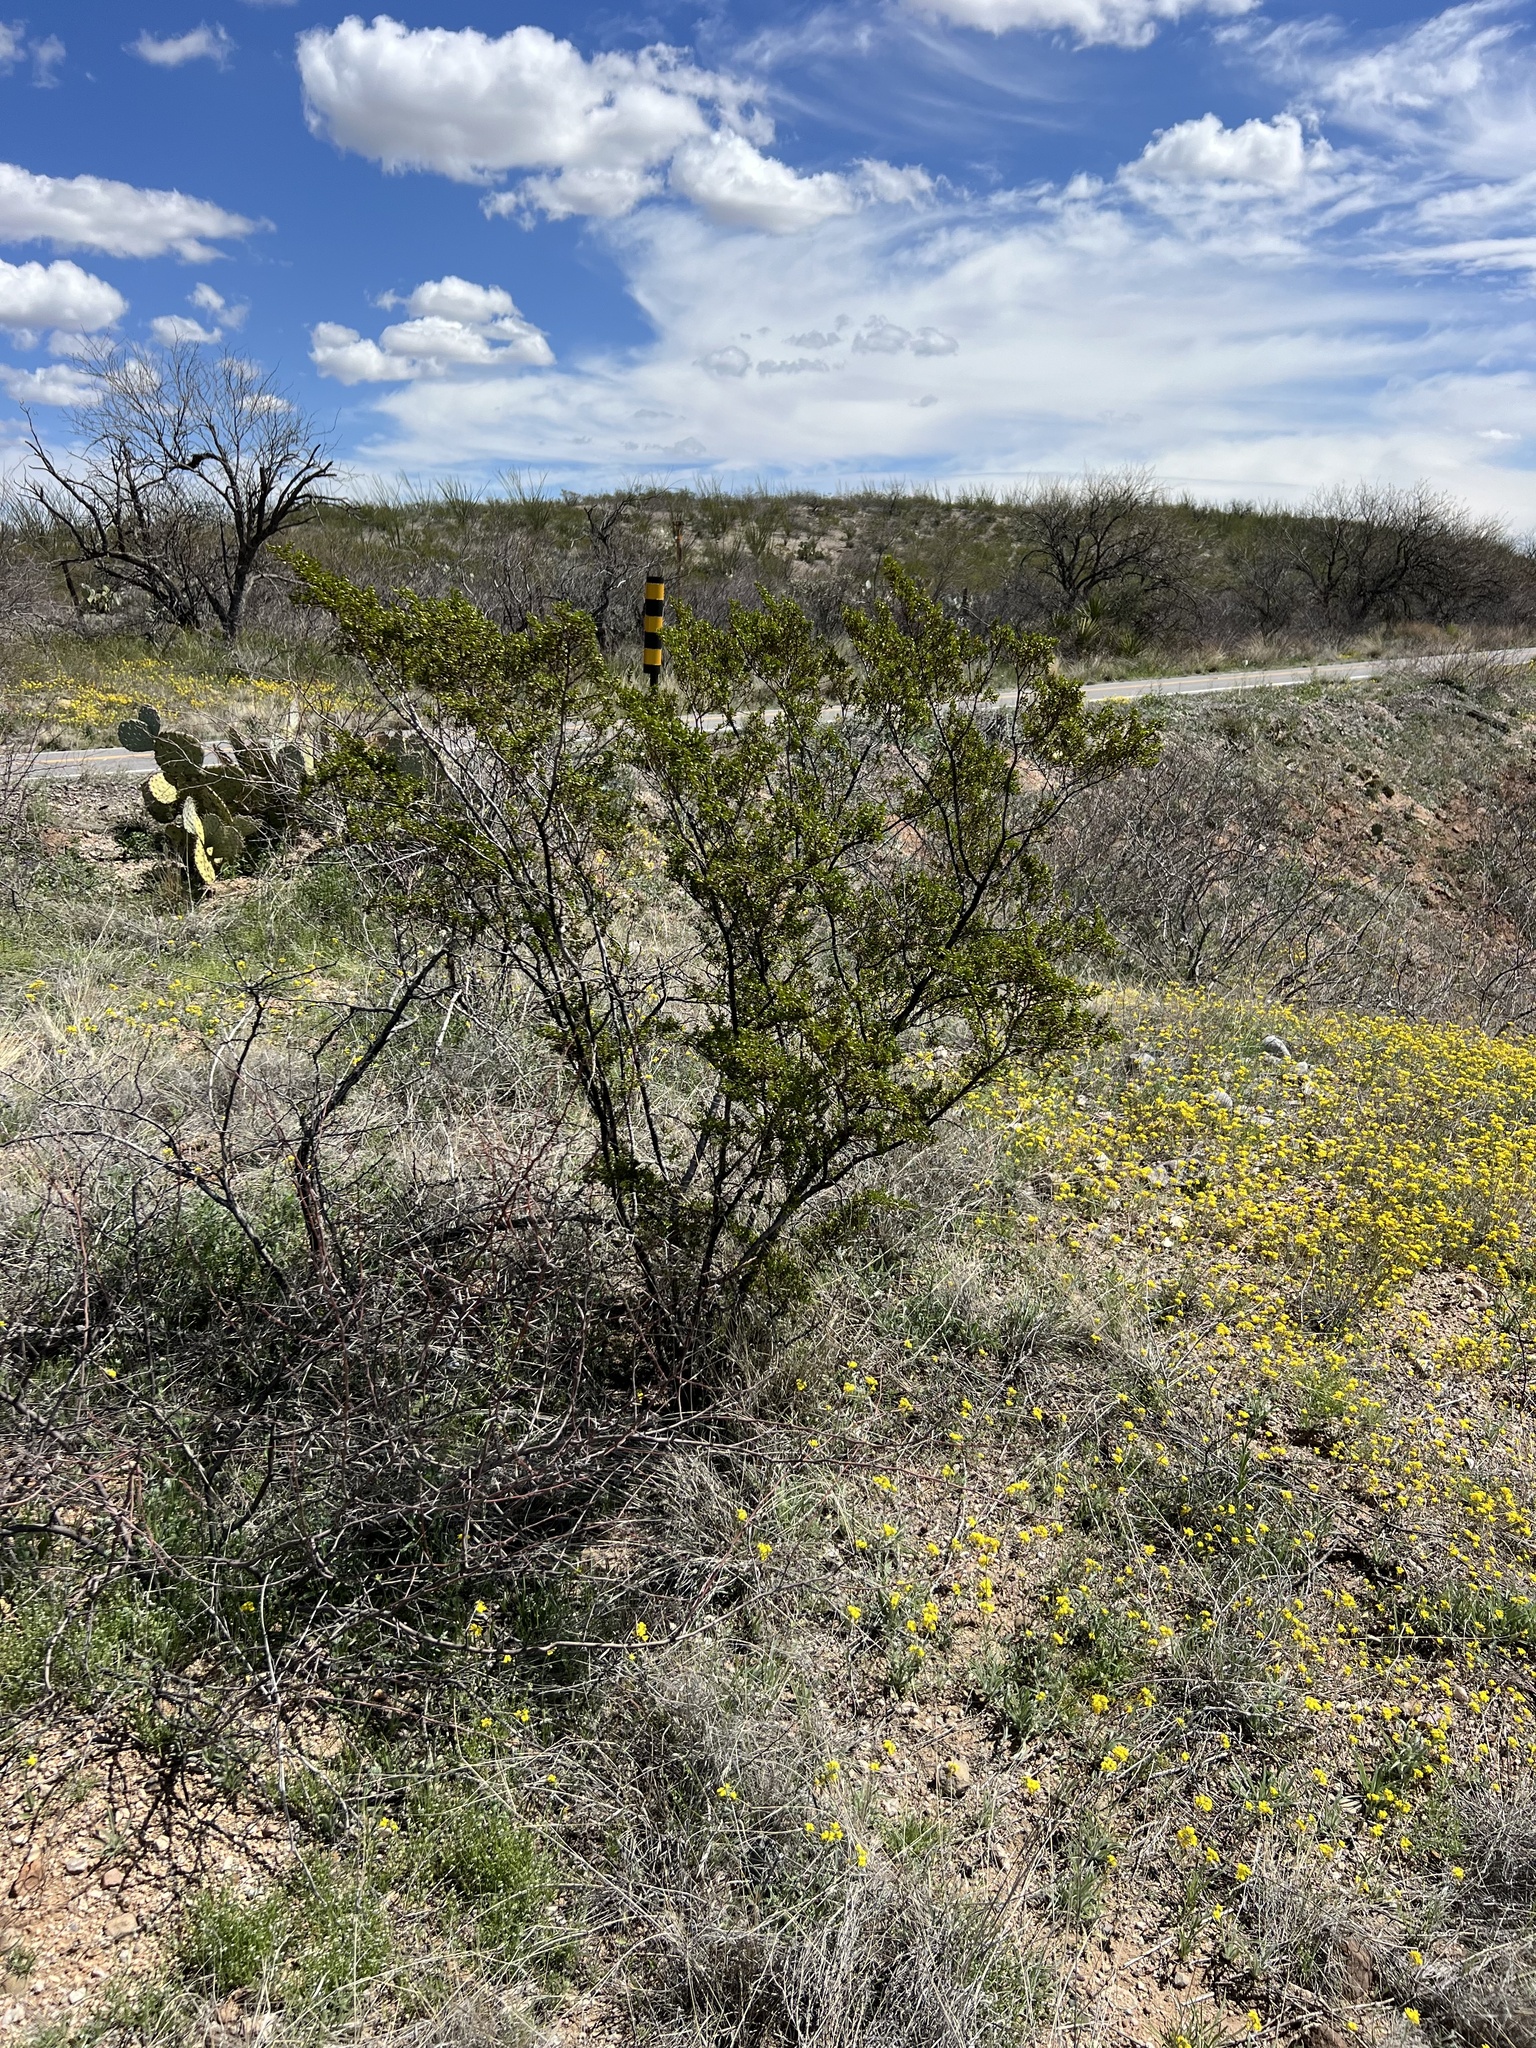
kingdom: Plantae
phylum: Tracheophyta
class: Magnoliopsida
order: Zygophyllales
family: Zygophyllaceae
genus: Larrea
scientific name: Larrea tridentata
